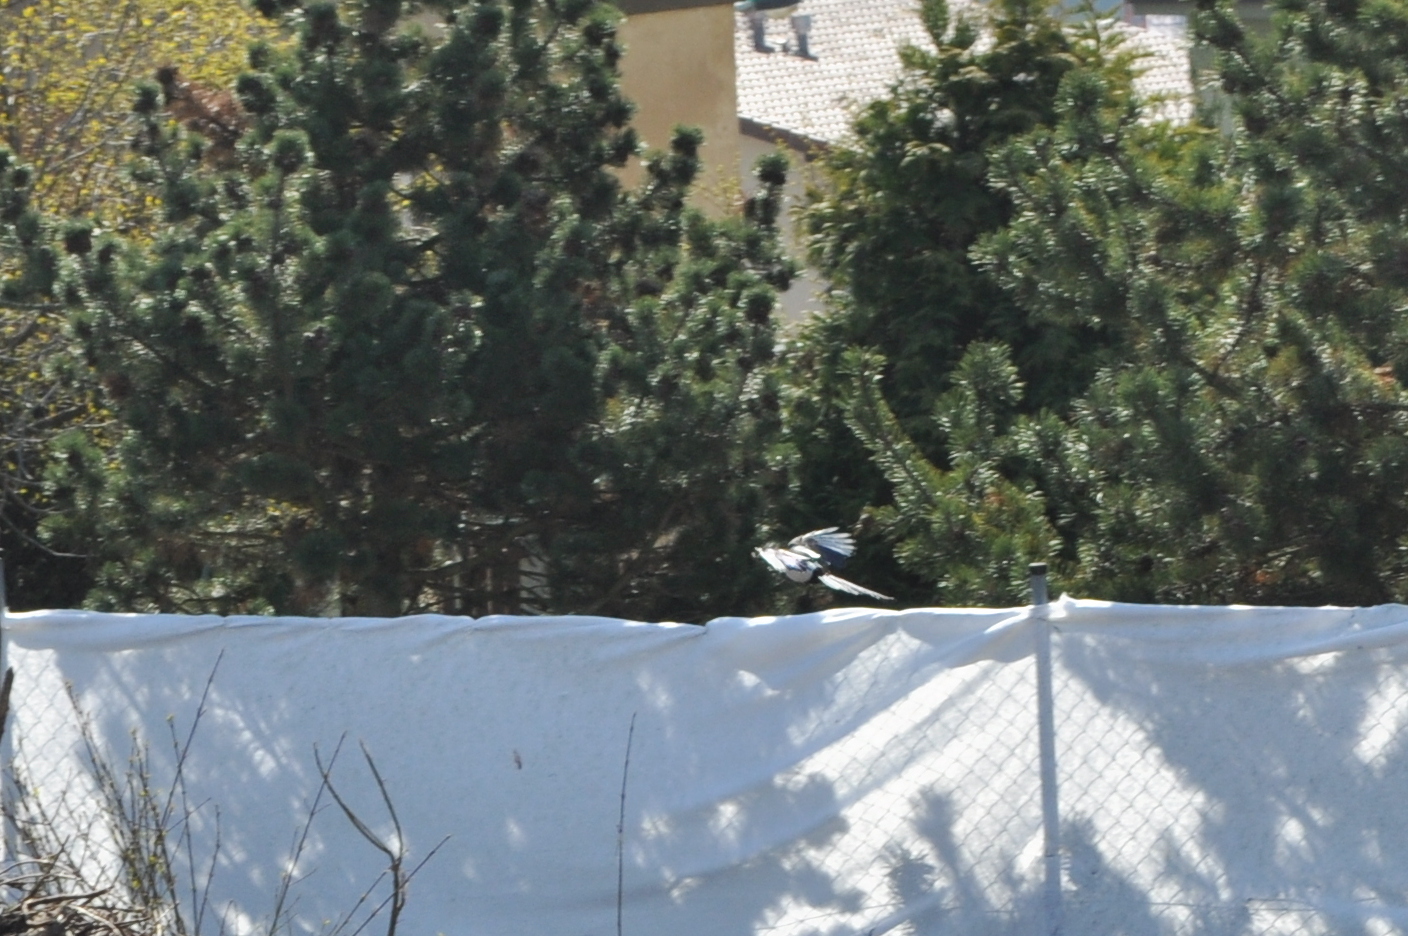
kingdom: Animalia
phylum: Chordata
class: Aves
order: Passeriformes
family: Corvidae
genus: Pica
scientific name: Pica pica
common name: Eurasian magpie
